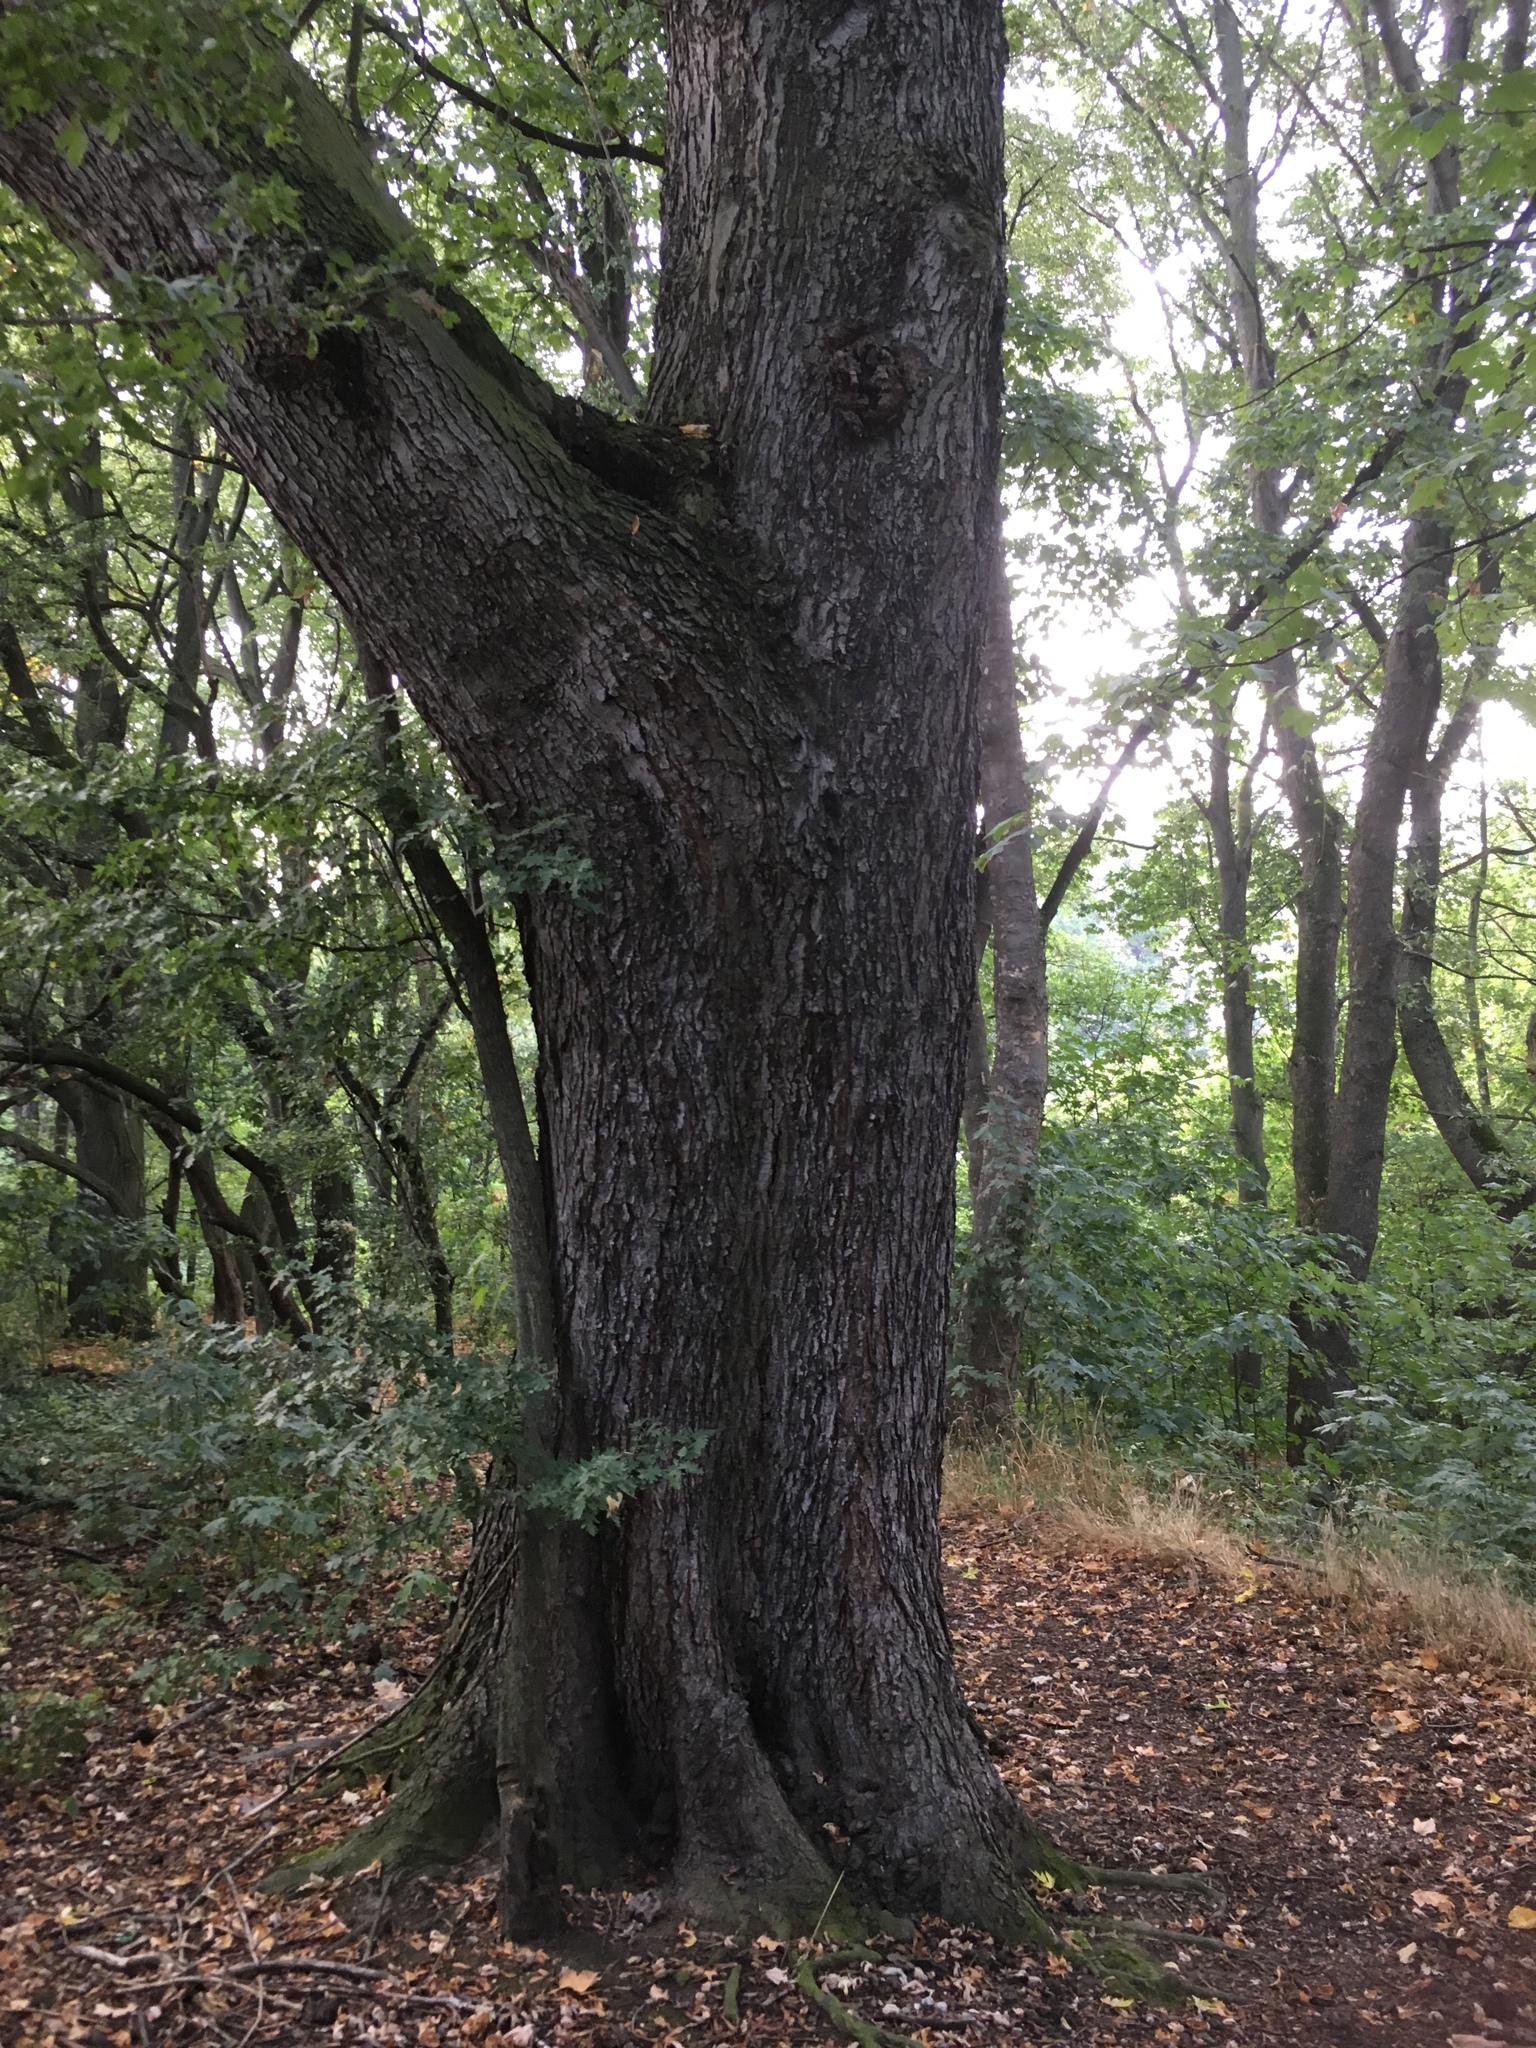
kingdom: Plantae
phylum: Tracheophyta
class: Magnoliopsida
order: Sapindales
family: Sapindaceae
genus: Acer
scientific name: Acer saccharinum
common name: Silver maple
